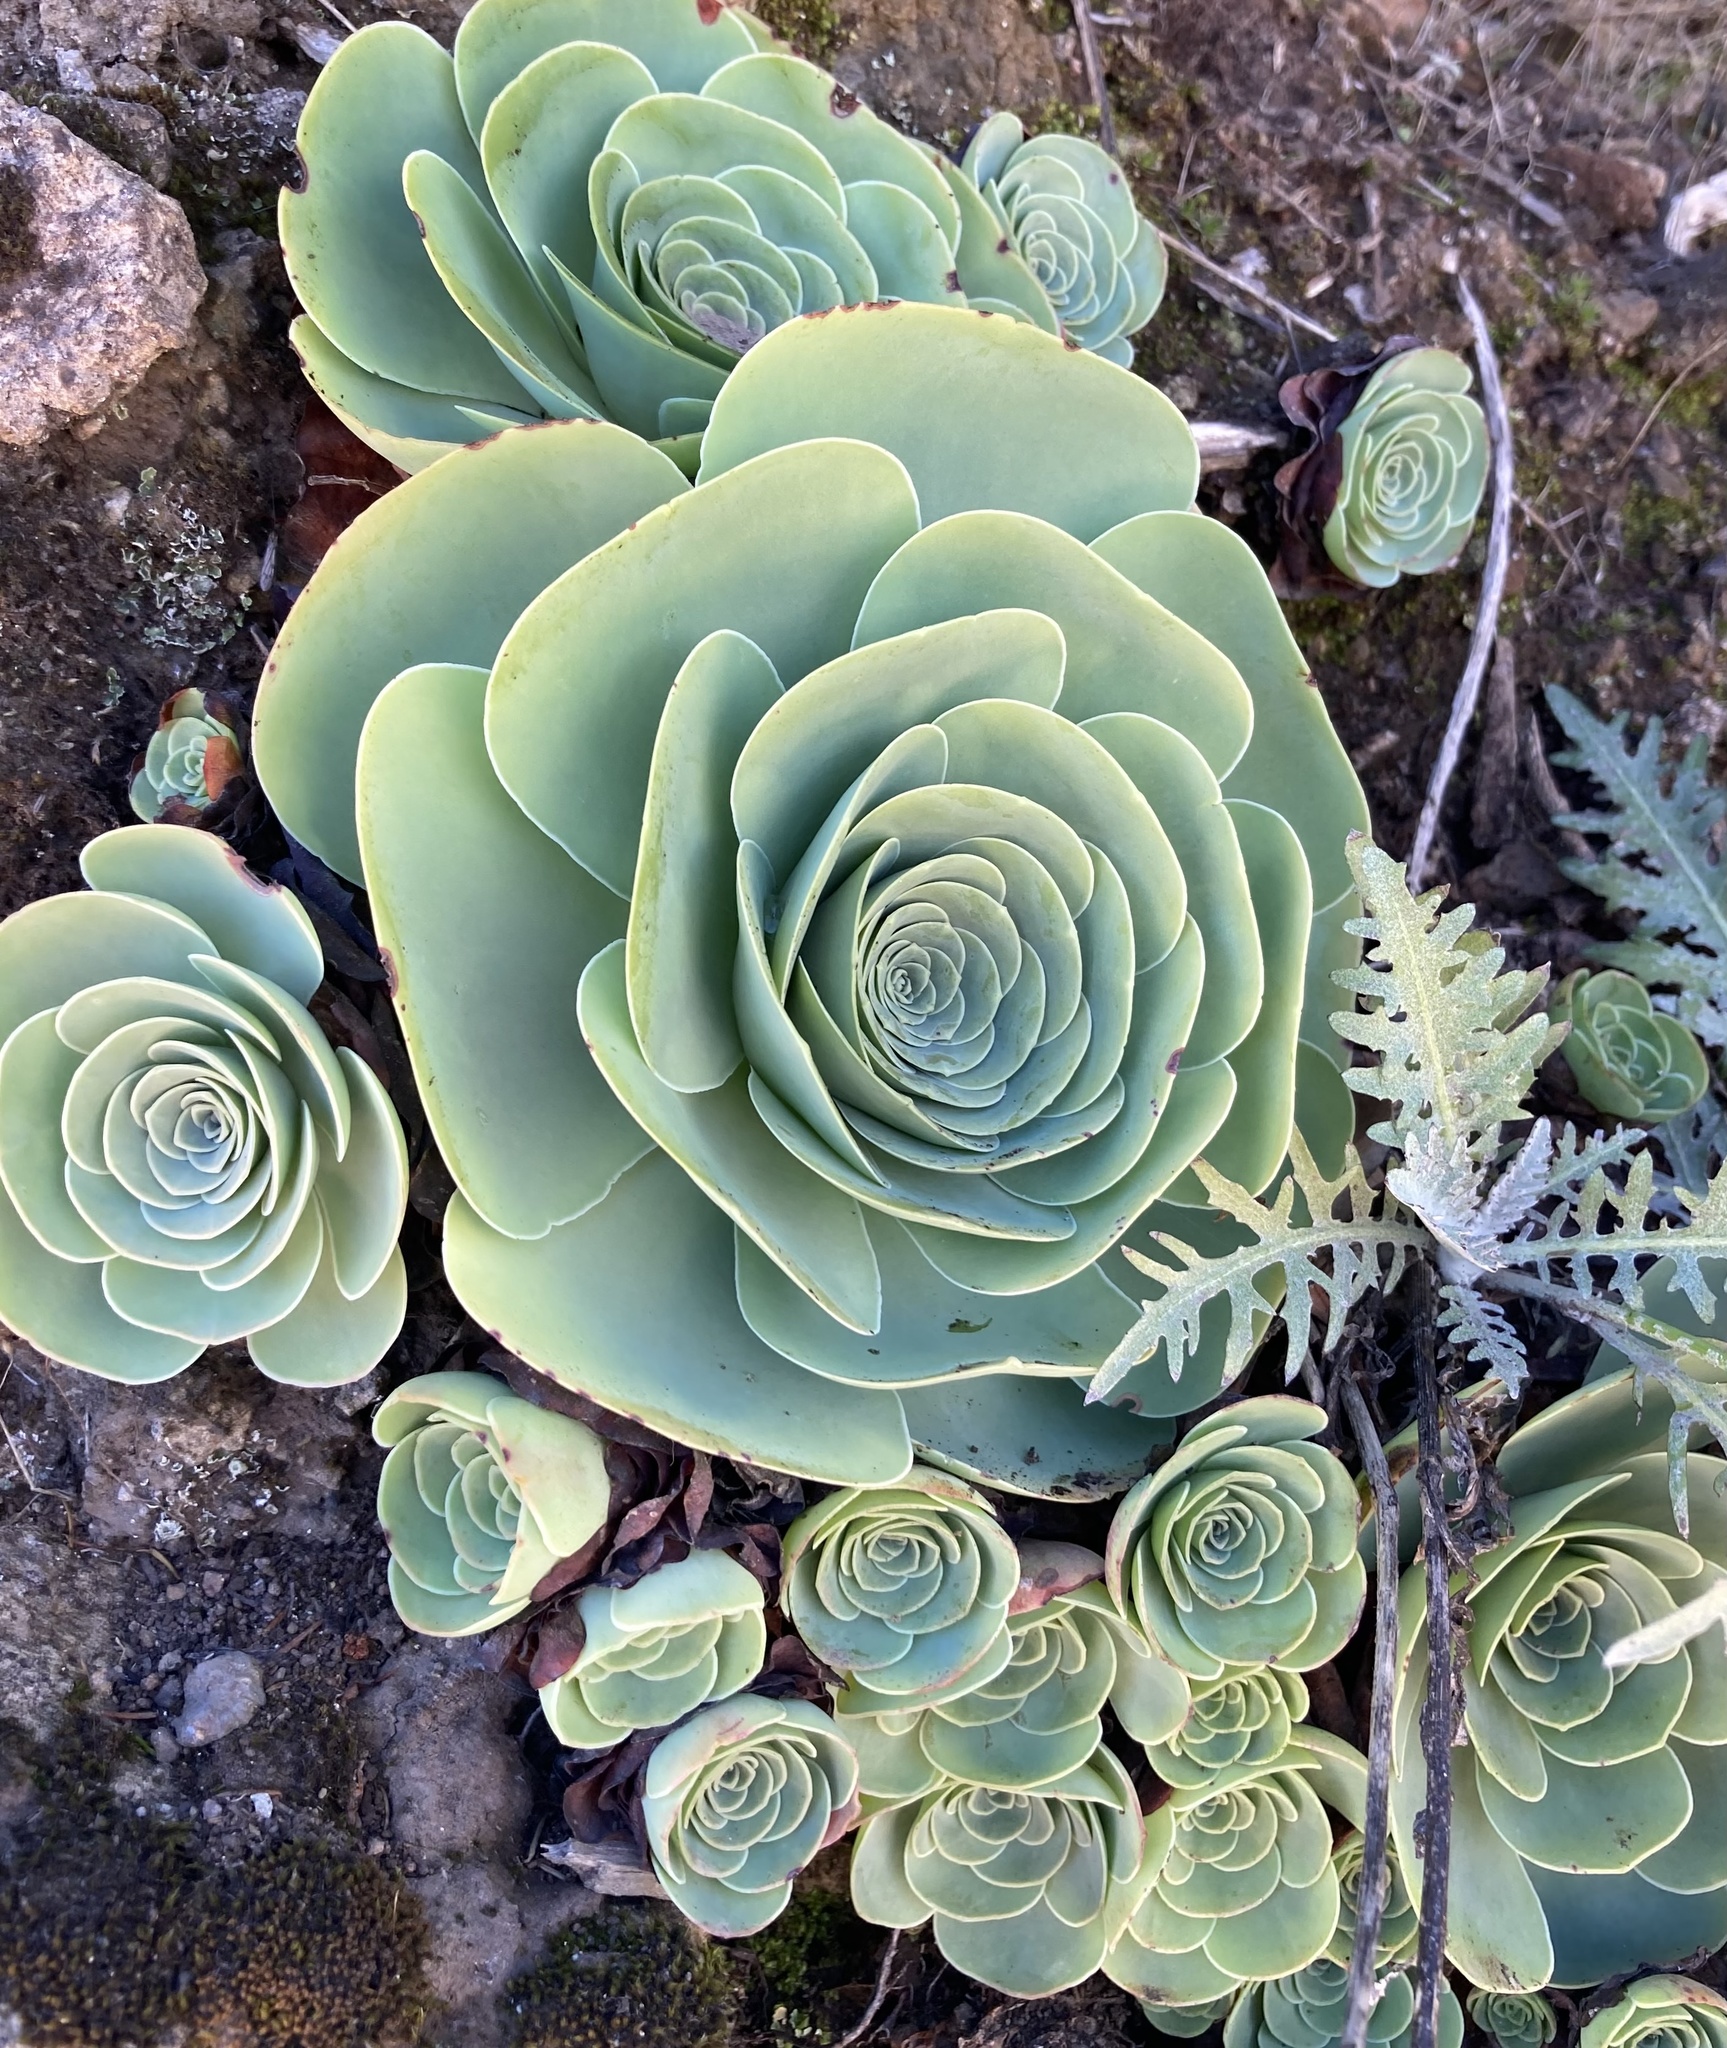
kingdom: Plantae
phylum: Tracheophyta
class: Magnoliopsida
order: Saxifragales
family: Crassulaceae
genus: Aeonium
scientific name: Aeonium diplocyclum
